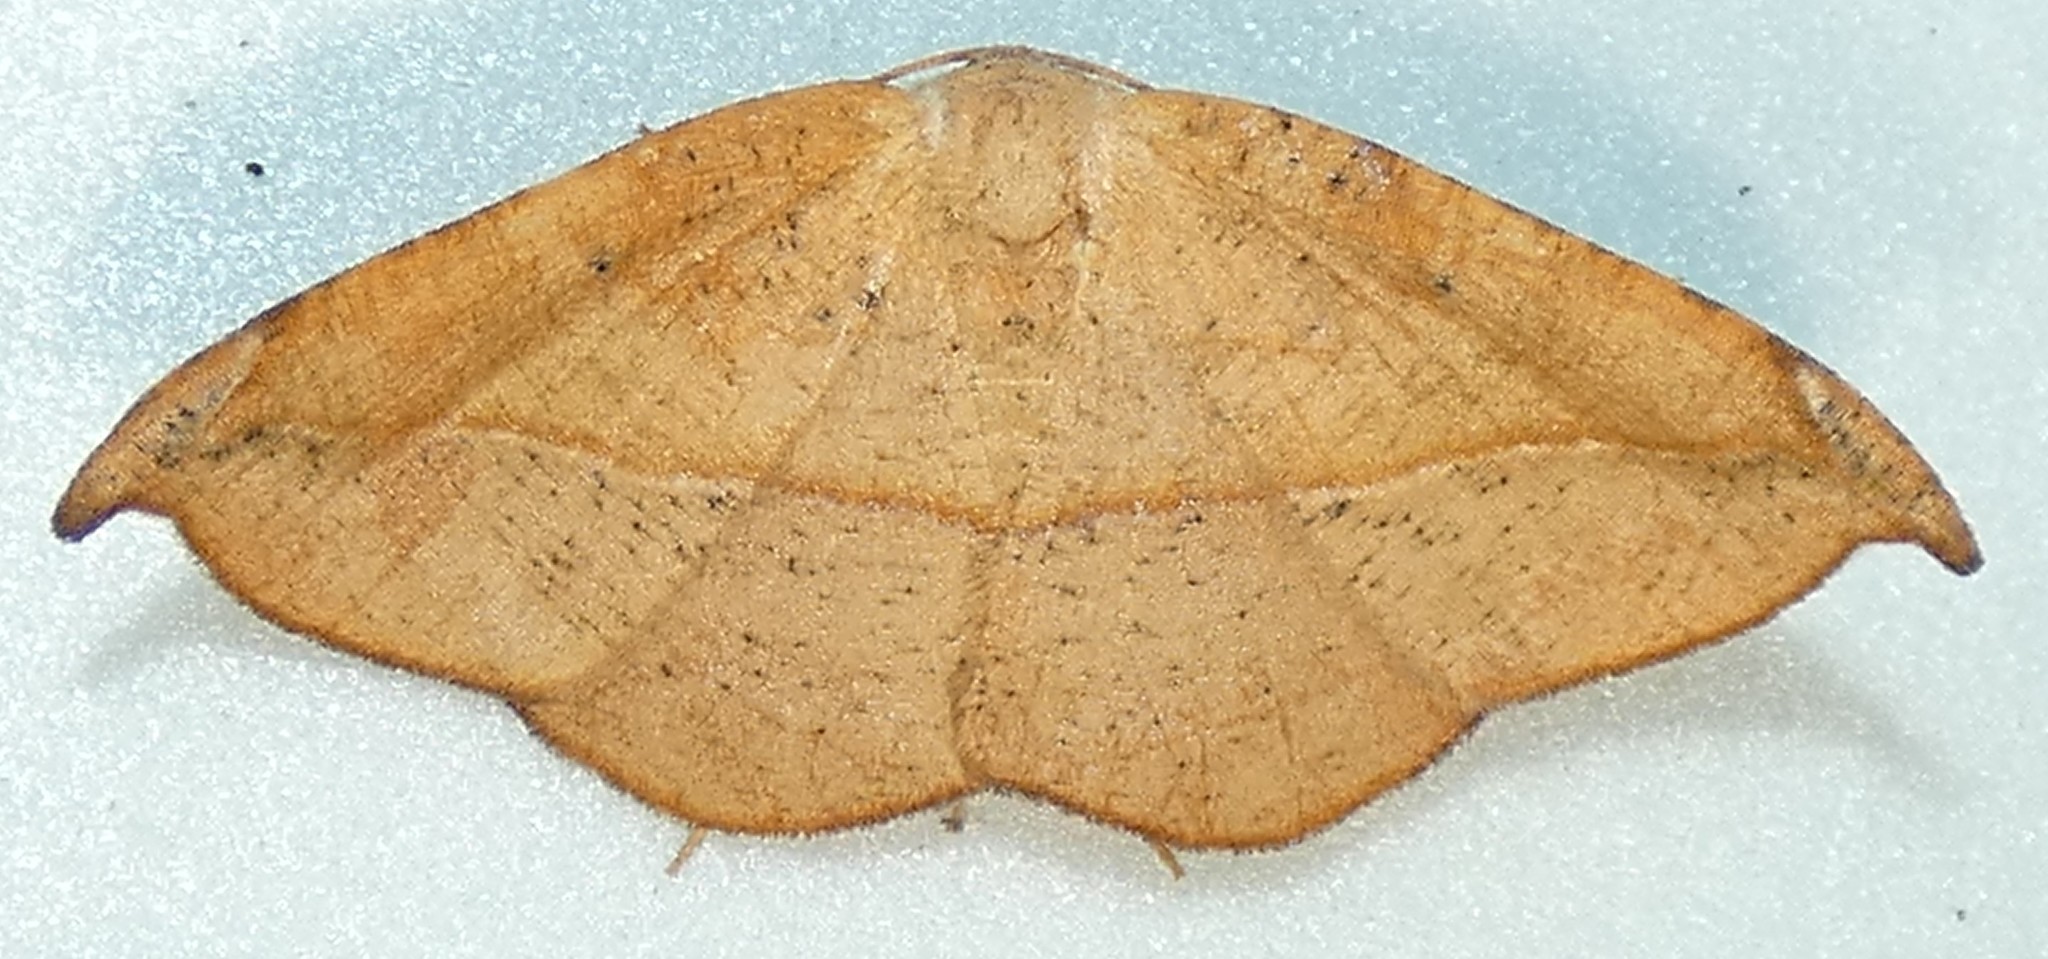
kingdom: Animalia
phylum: Arthropoda
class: Insecta
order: Lepidoptera
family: Geometridae
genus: Patalene
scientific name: Patalene olyzonaria
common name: Juniper geometer moth
